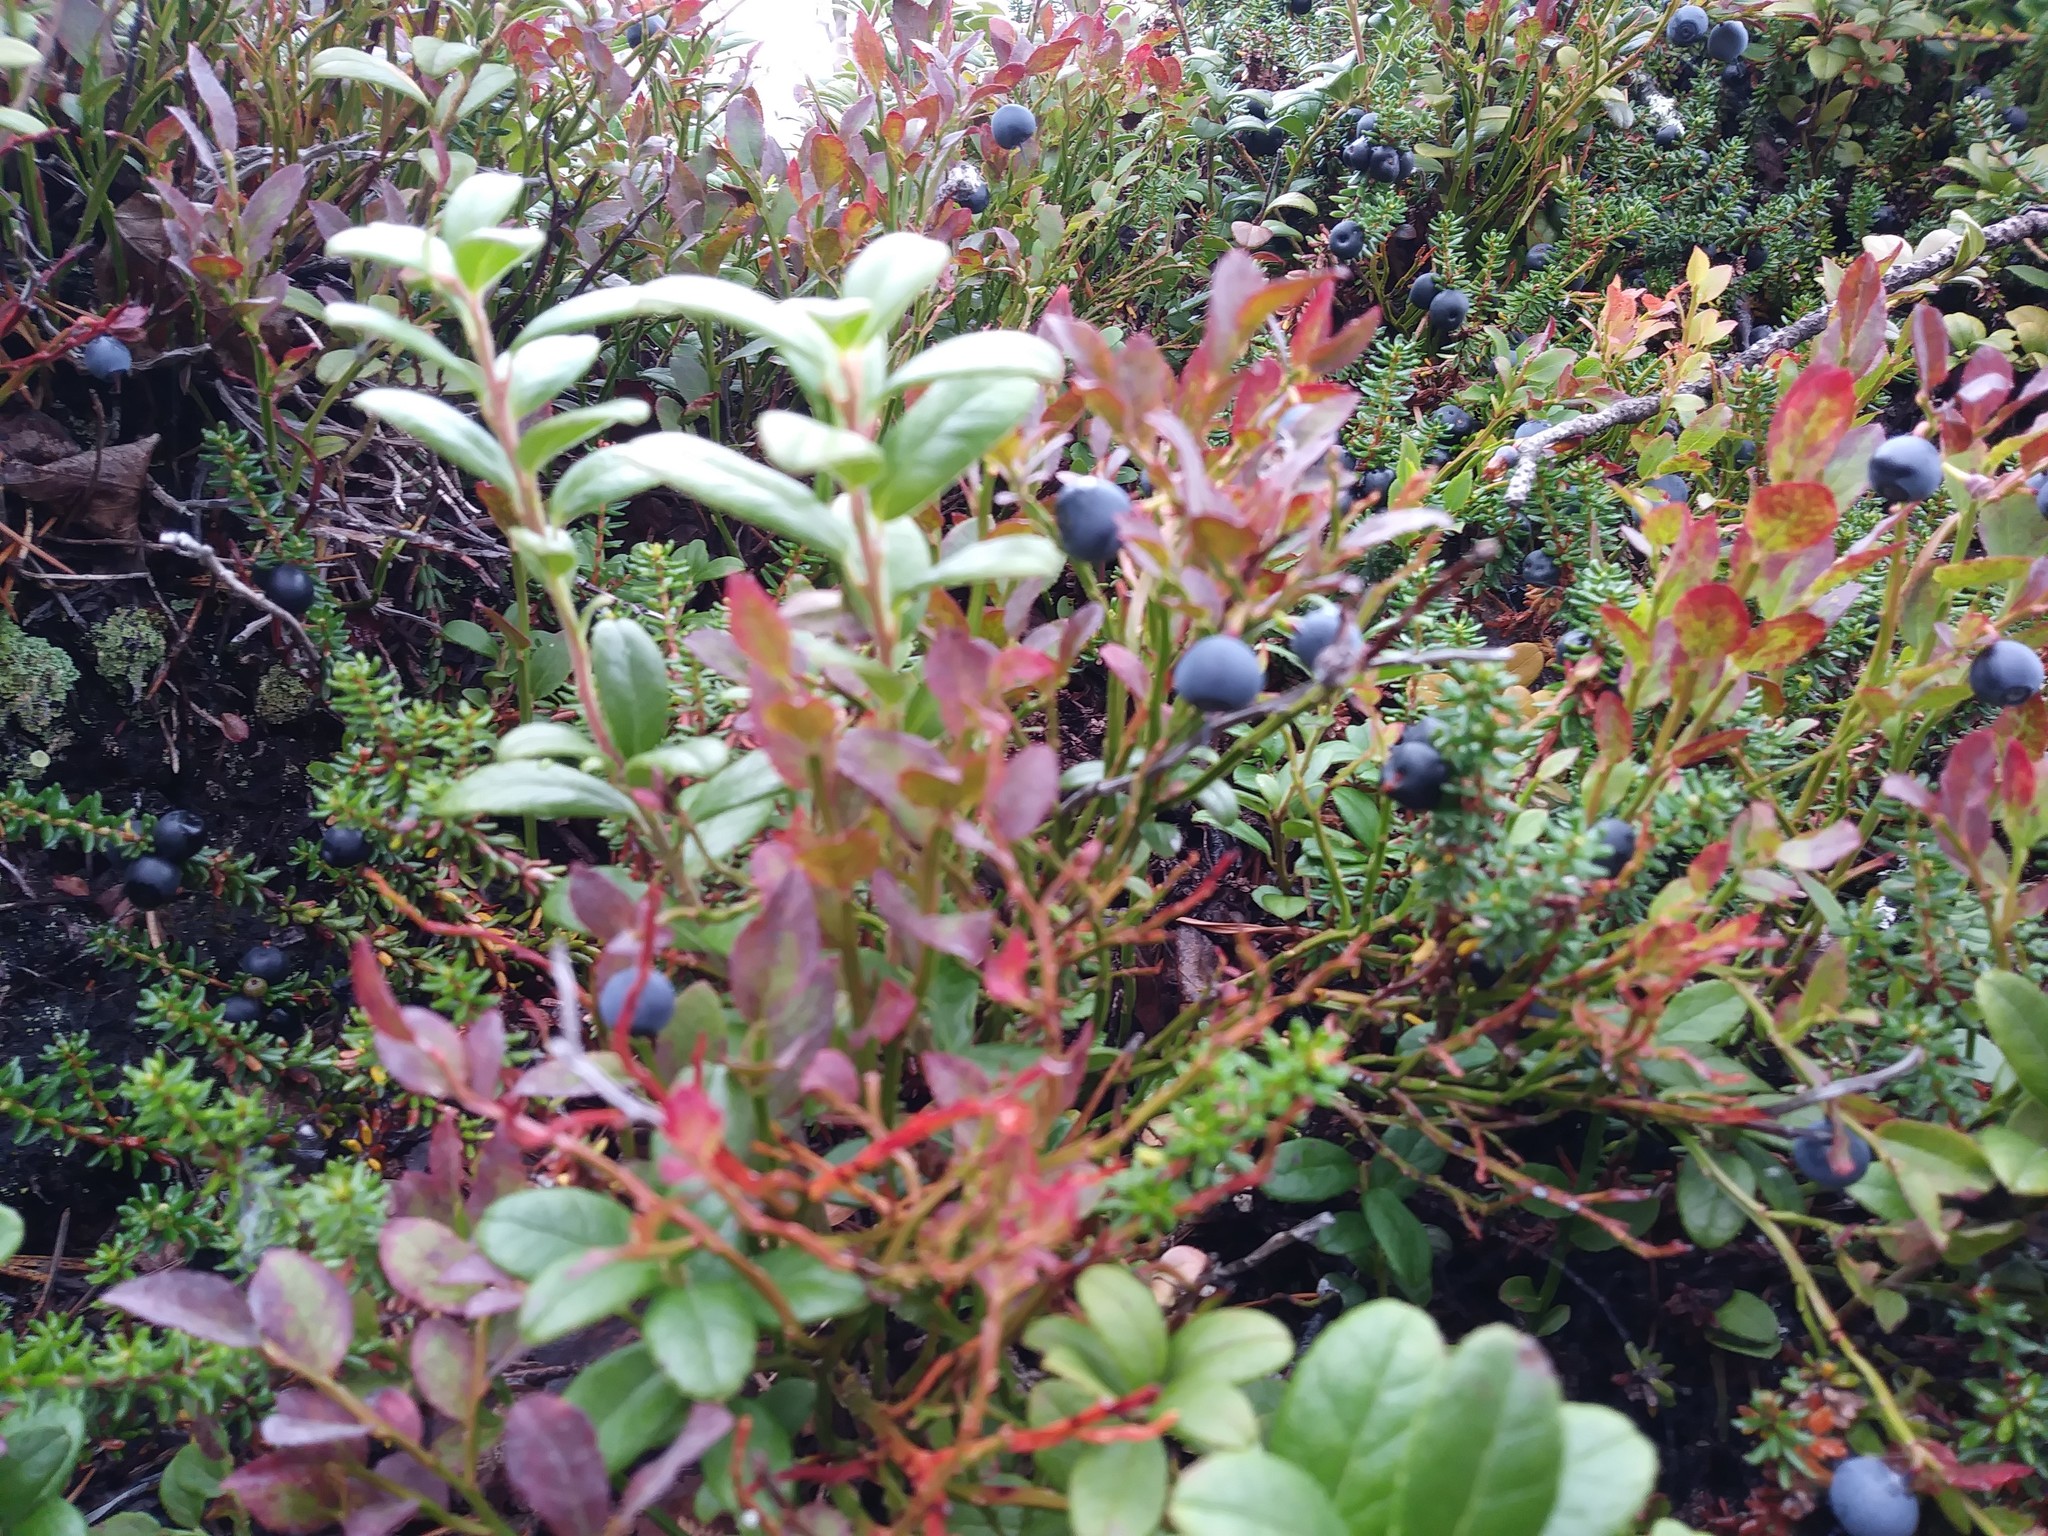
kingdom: Plantae
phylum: Tracheophyta
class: Magnoliopsida
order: Ericales
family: Ericaceae
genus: Vaccinium
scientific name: Vaccinium myrtillus
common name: Bilberry
